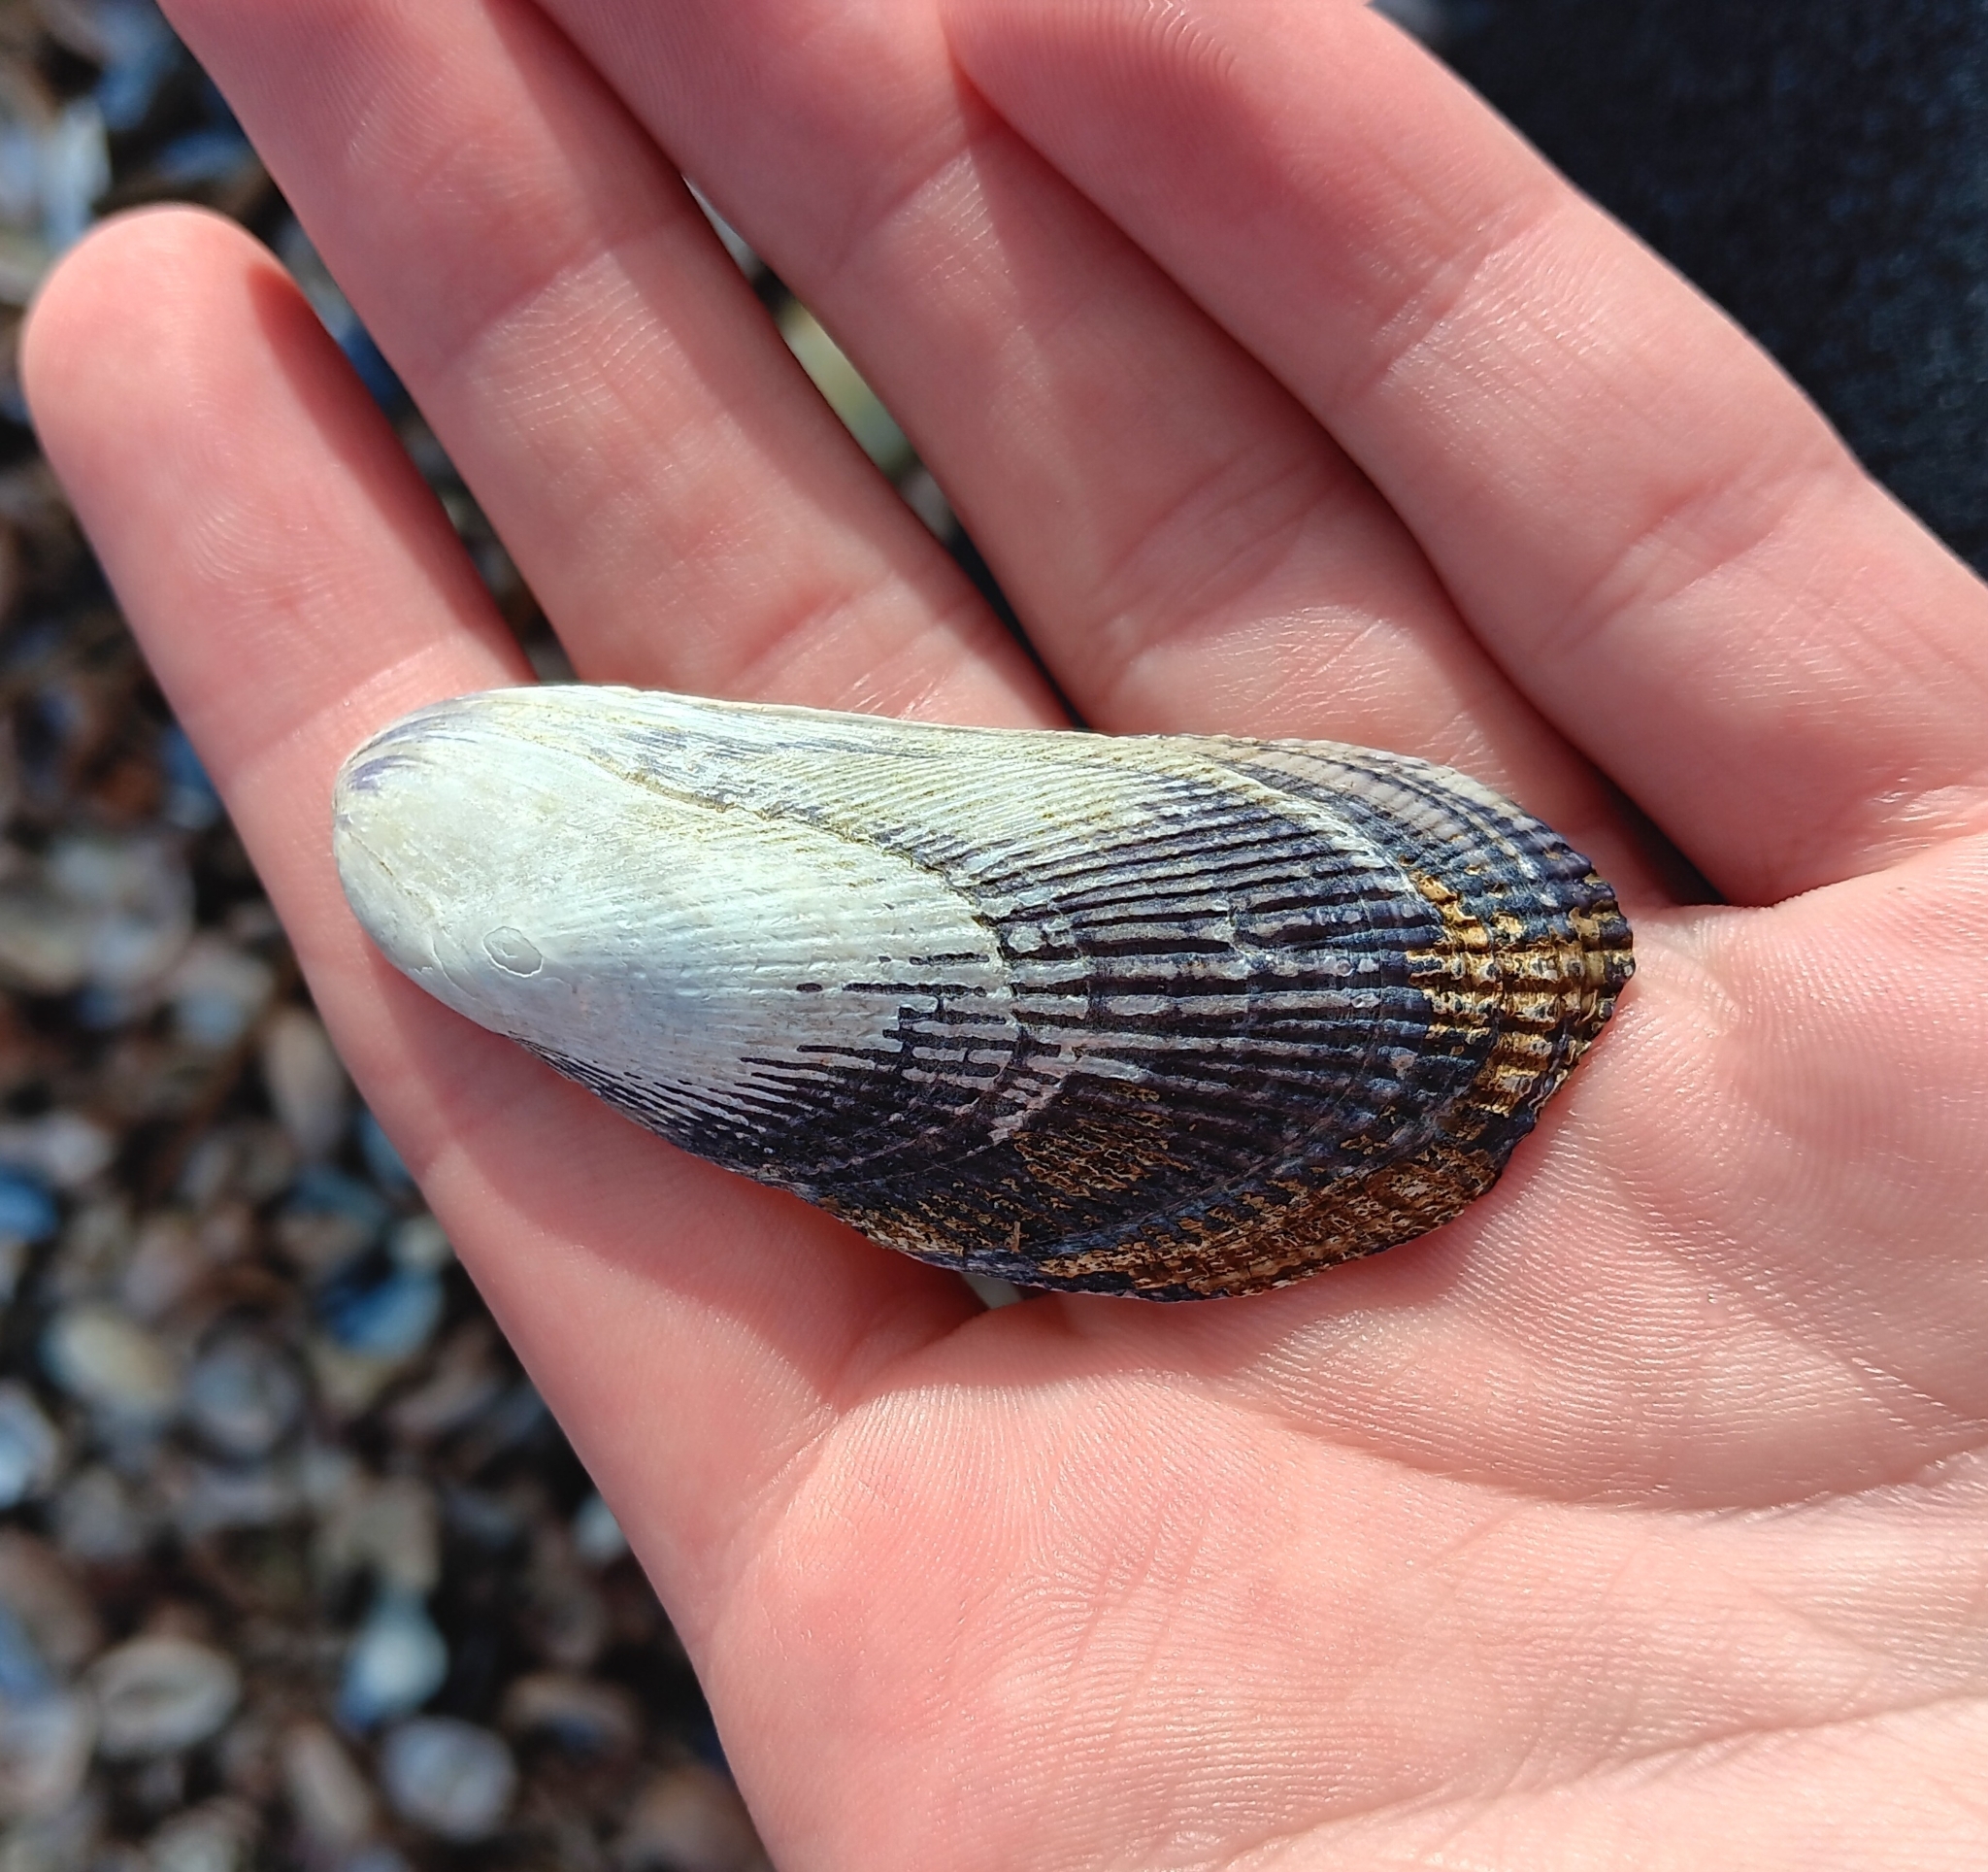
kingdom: Animalia
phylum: Mollusca
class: Bivalvia
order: Mytilida
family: Mytilidae
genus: Geukensia
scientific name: Geukensia demissa
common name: Ribbed mussel
